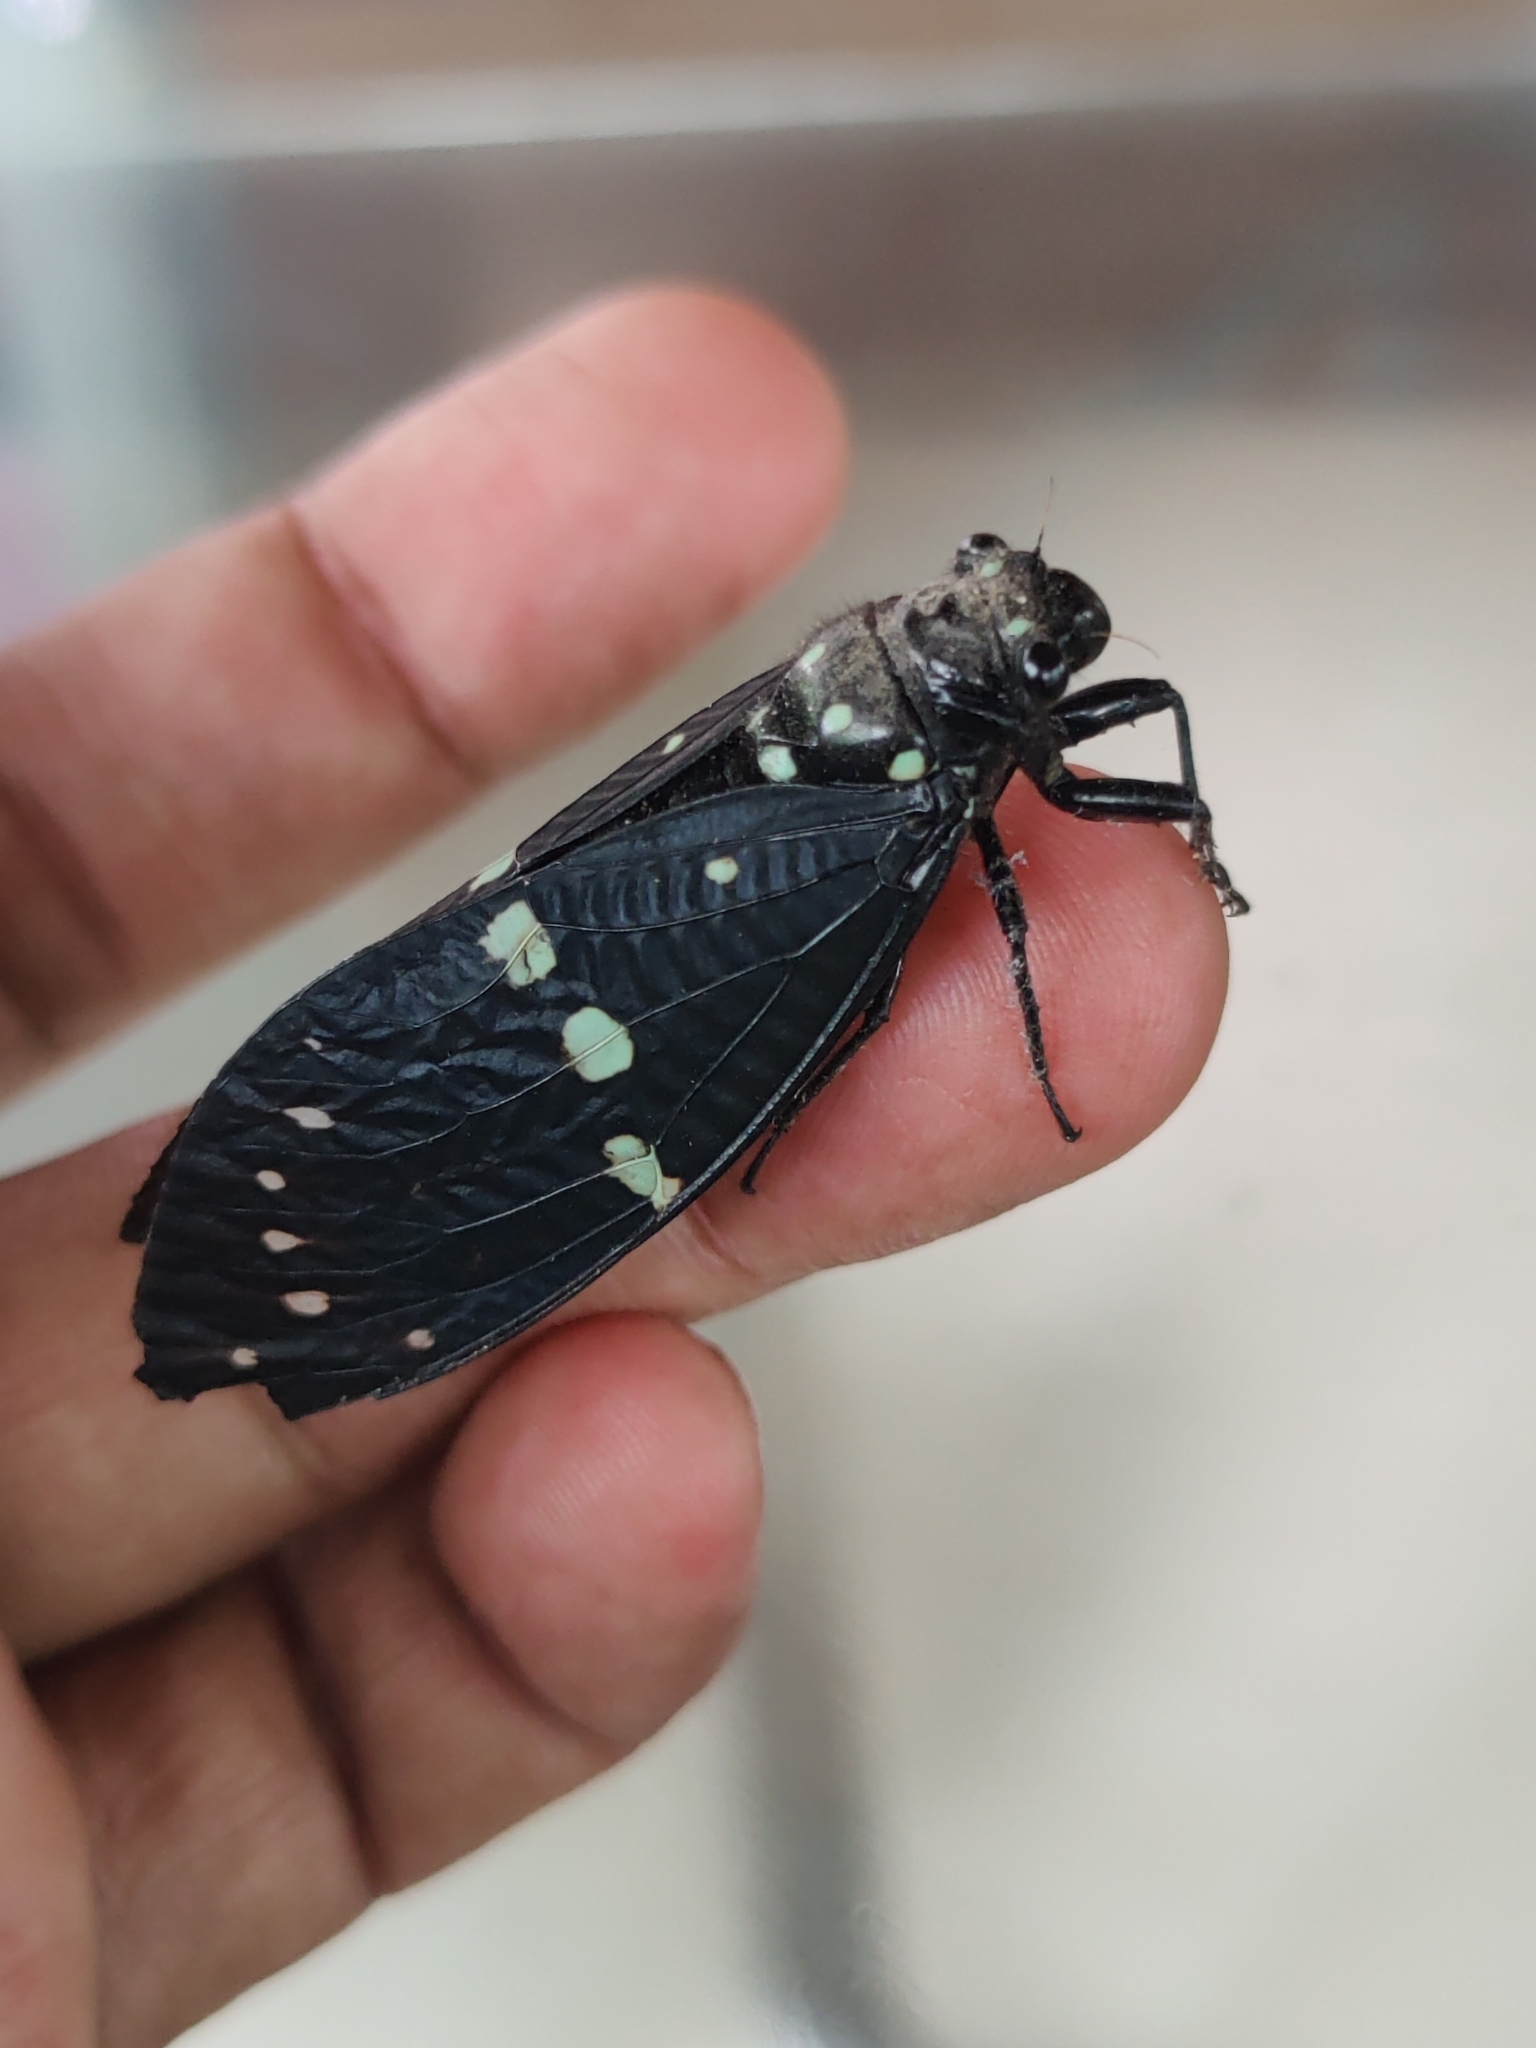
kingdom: Animalia
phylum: Arthropoda
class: Insecta
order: Hemiptera
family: Cicadidae
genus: Gaeana
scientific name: Gaeana nigra
